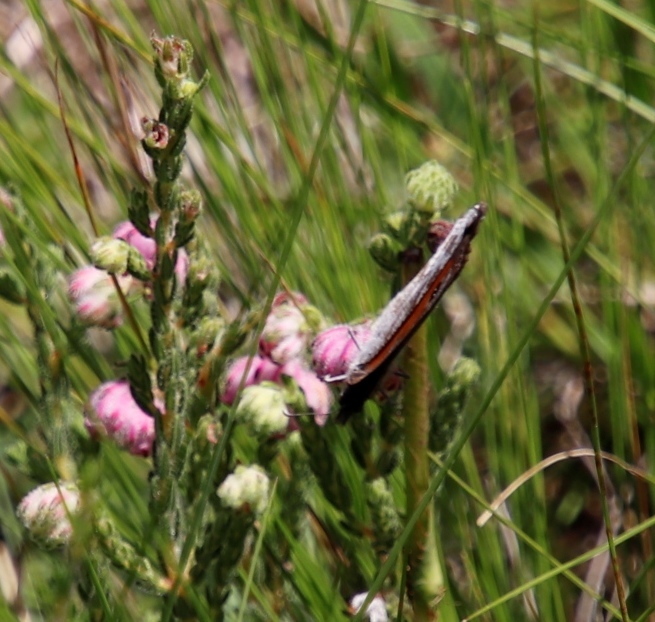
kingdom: Animalia
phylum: Arthropoda
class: Insecta
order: Lepidoptera
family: Nymphalidae
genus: Pseudonympha
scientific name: Pseudonympha magoides
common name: False silver-bottom brown
